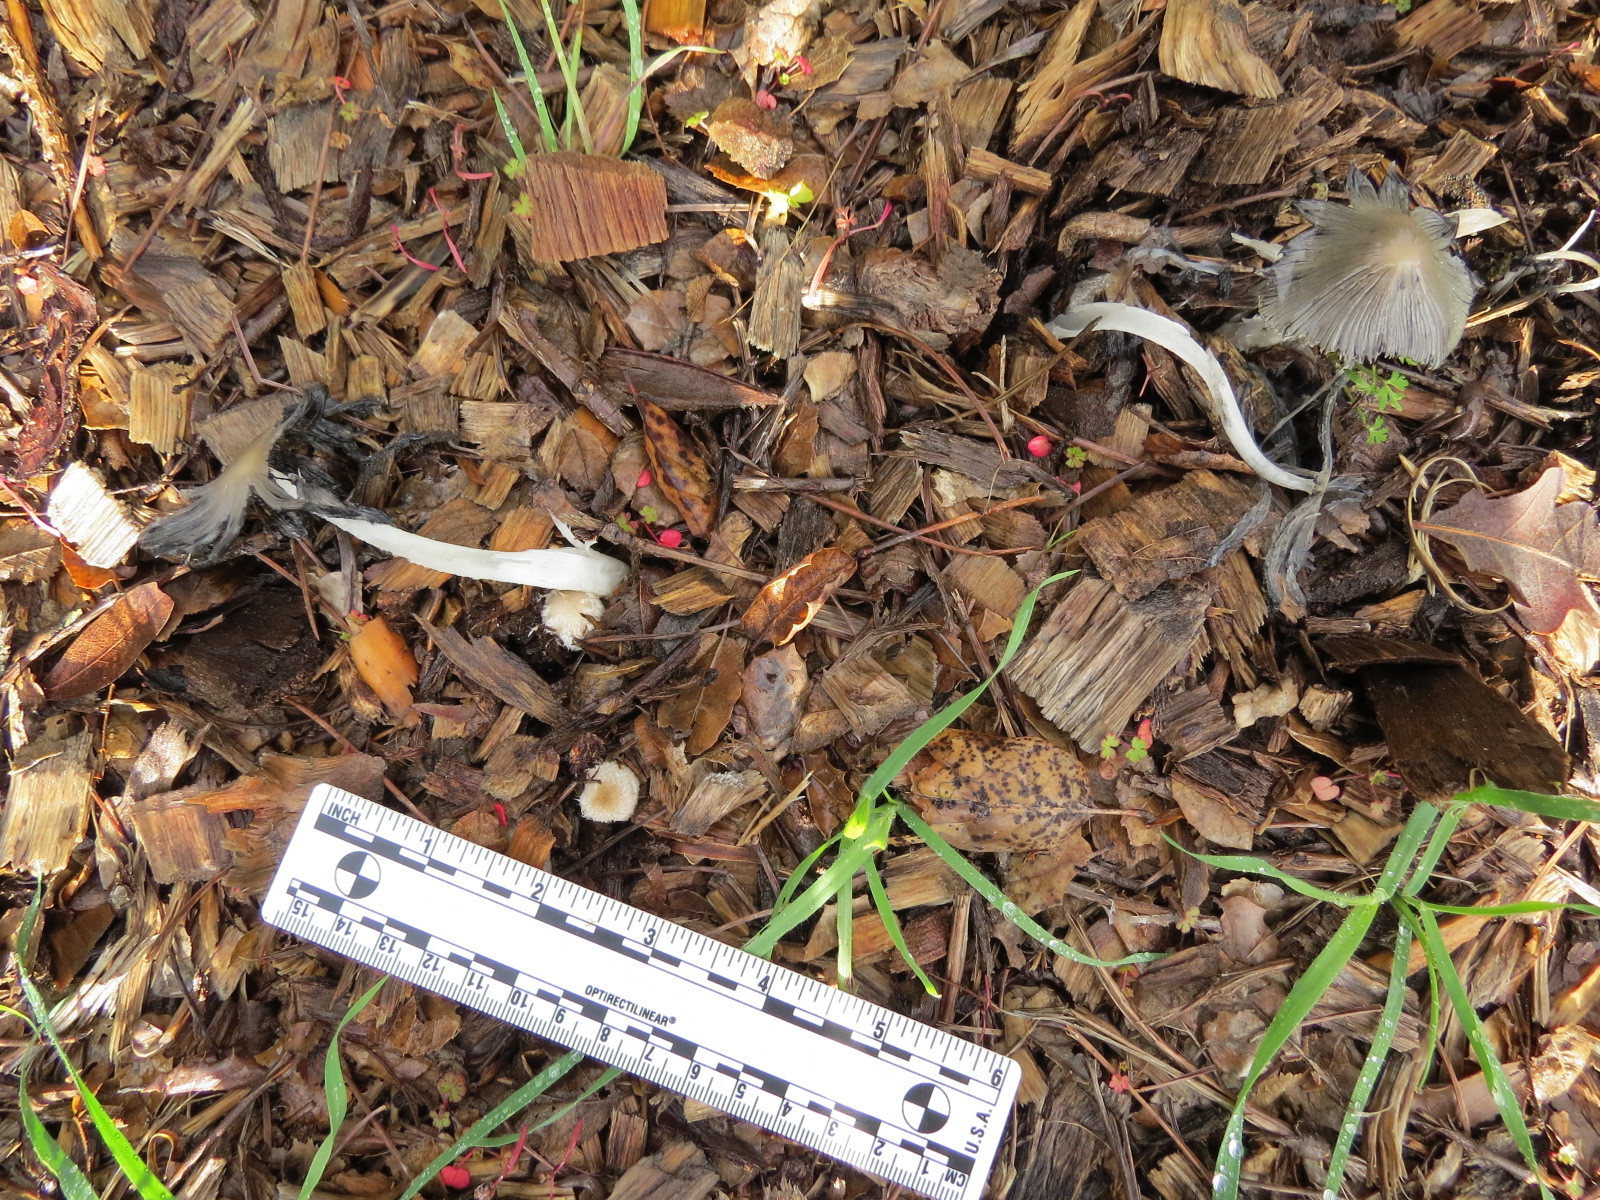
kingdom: Fungi
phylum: Basidiomycota
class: Agaricomycetes
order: Agaricales
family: Psathyrellaceae
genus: Coprinopsis
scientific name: Coprinopsis lagopus
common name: Hare'sfoot inkcap
